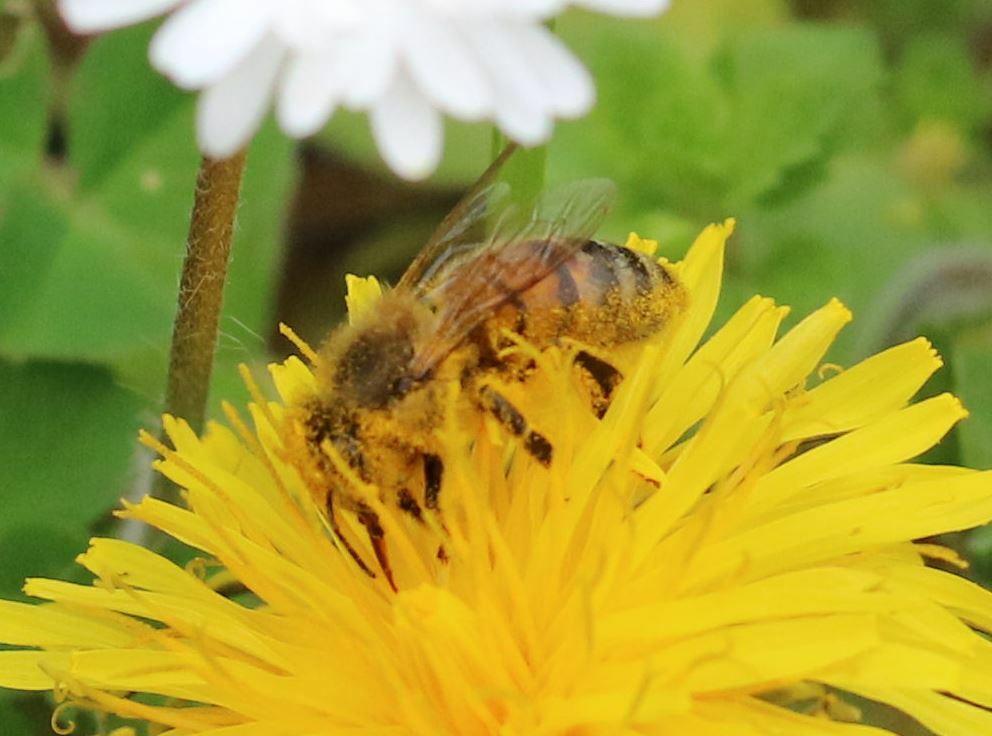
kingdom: Animalia
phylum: Arthropoda
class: Insecta
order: Hymenoptera
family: Apidae
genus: Apis
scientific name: Apis mellifera
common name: Honey bee
